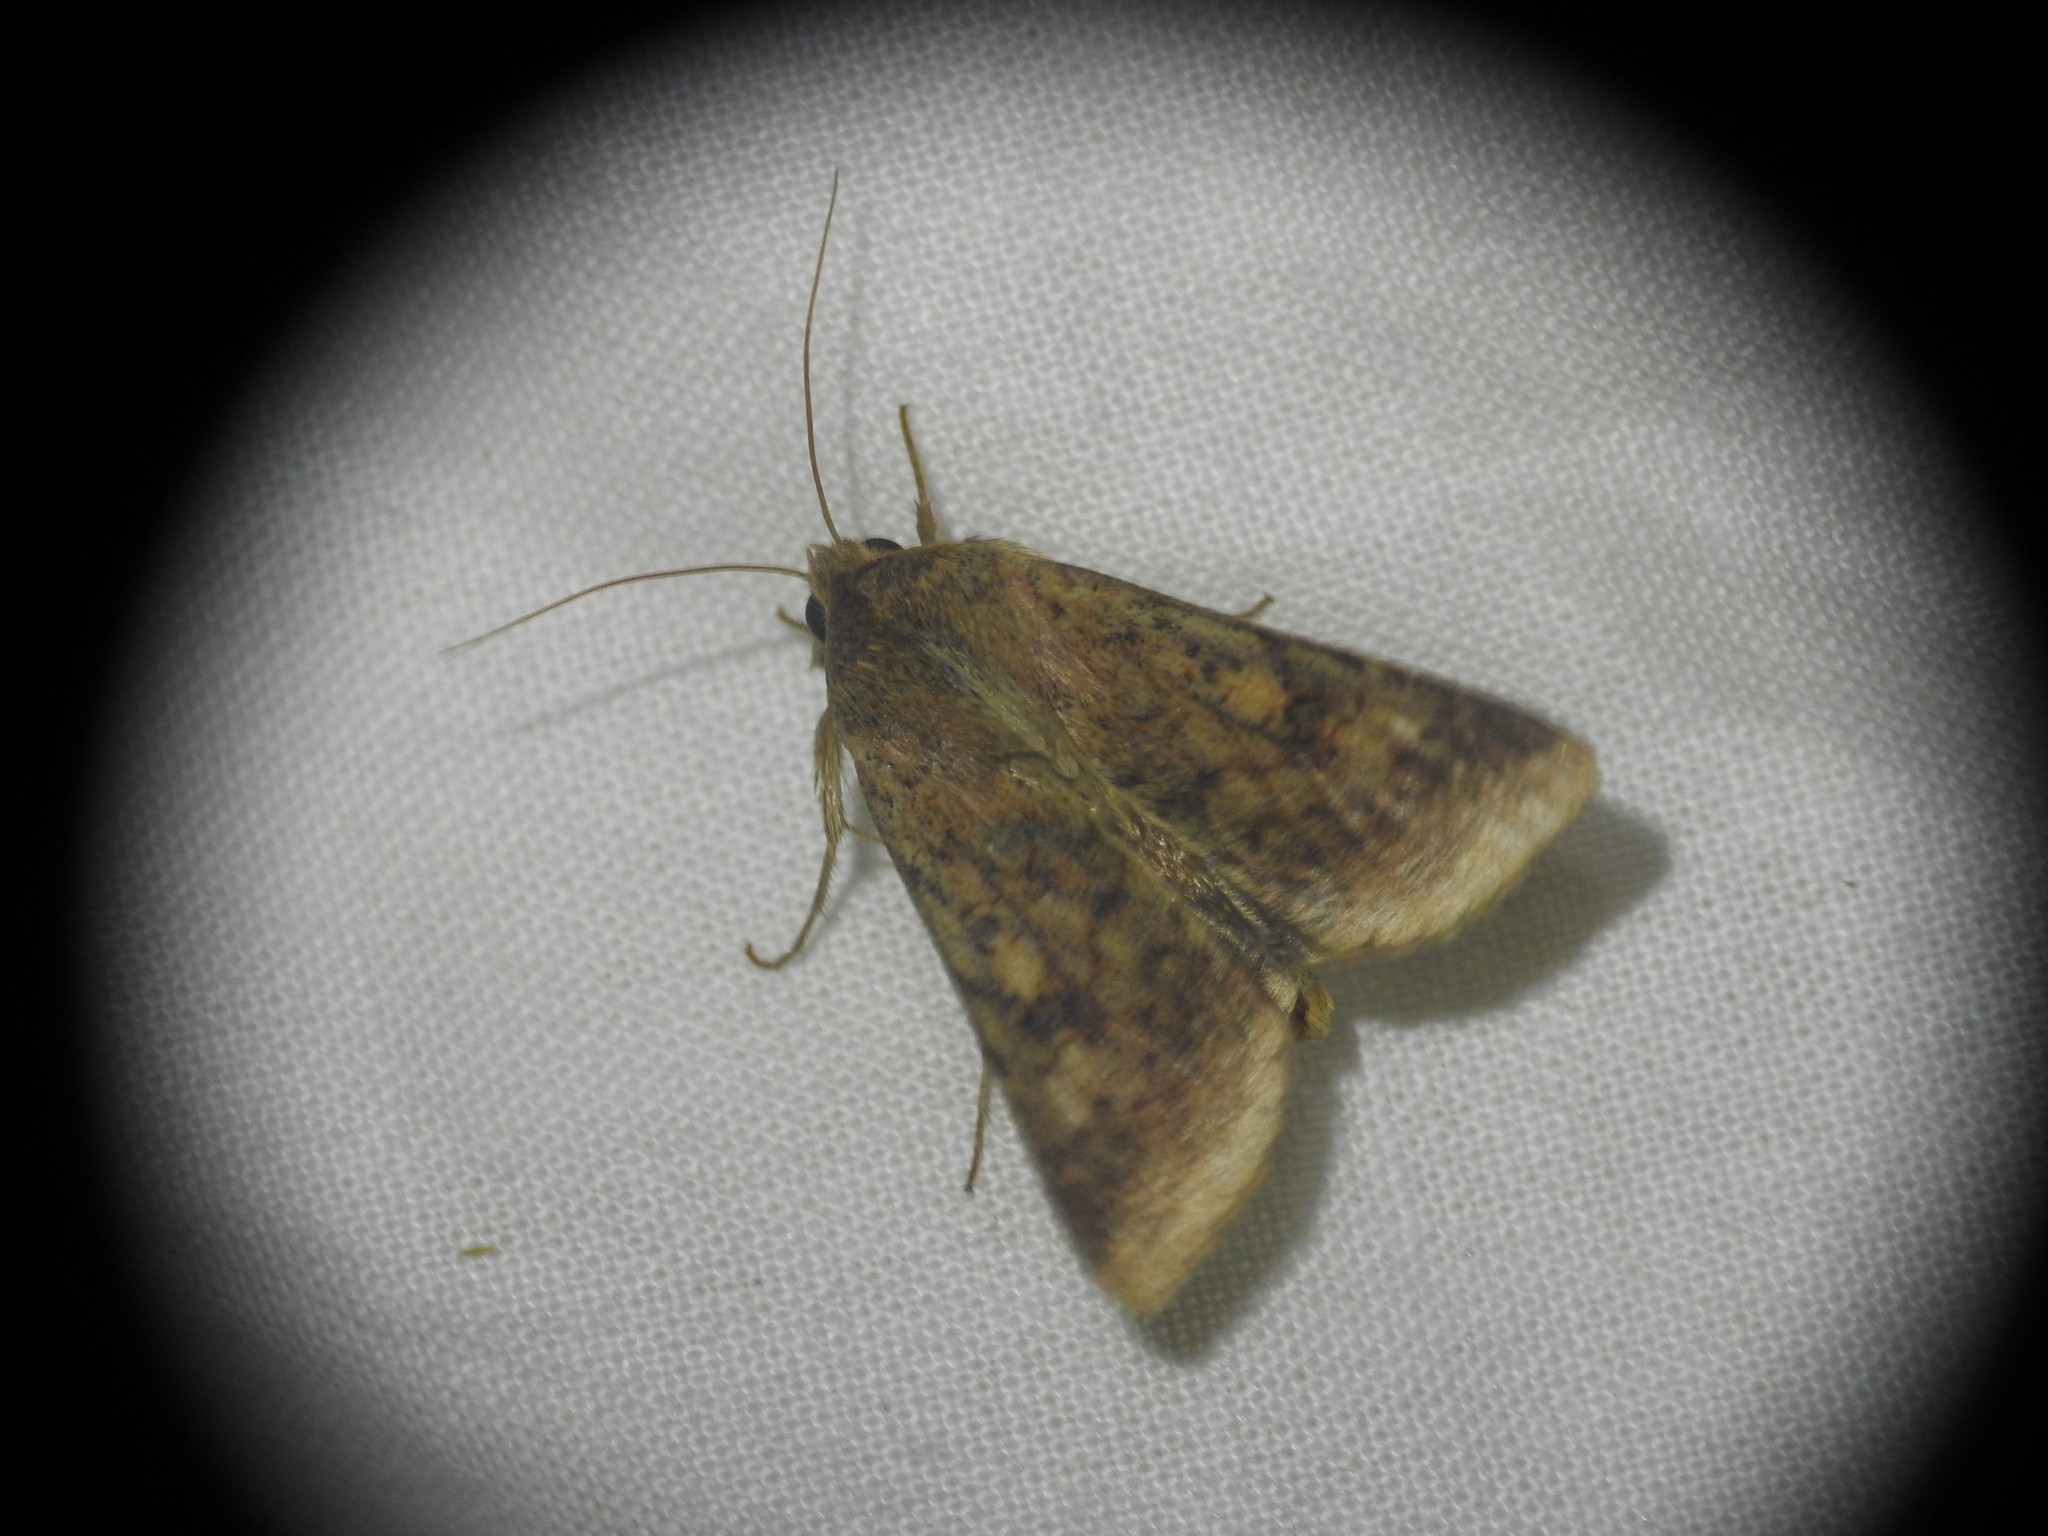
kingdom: Animalia
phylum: Arthropoda
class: Insecta
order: Lepidoptera
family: Noctuidae
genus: Helicoverpa
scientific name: Helicoverpa armigera
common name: Cotton bollworm
